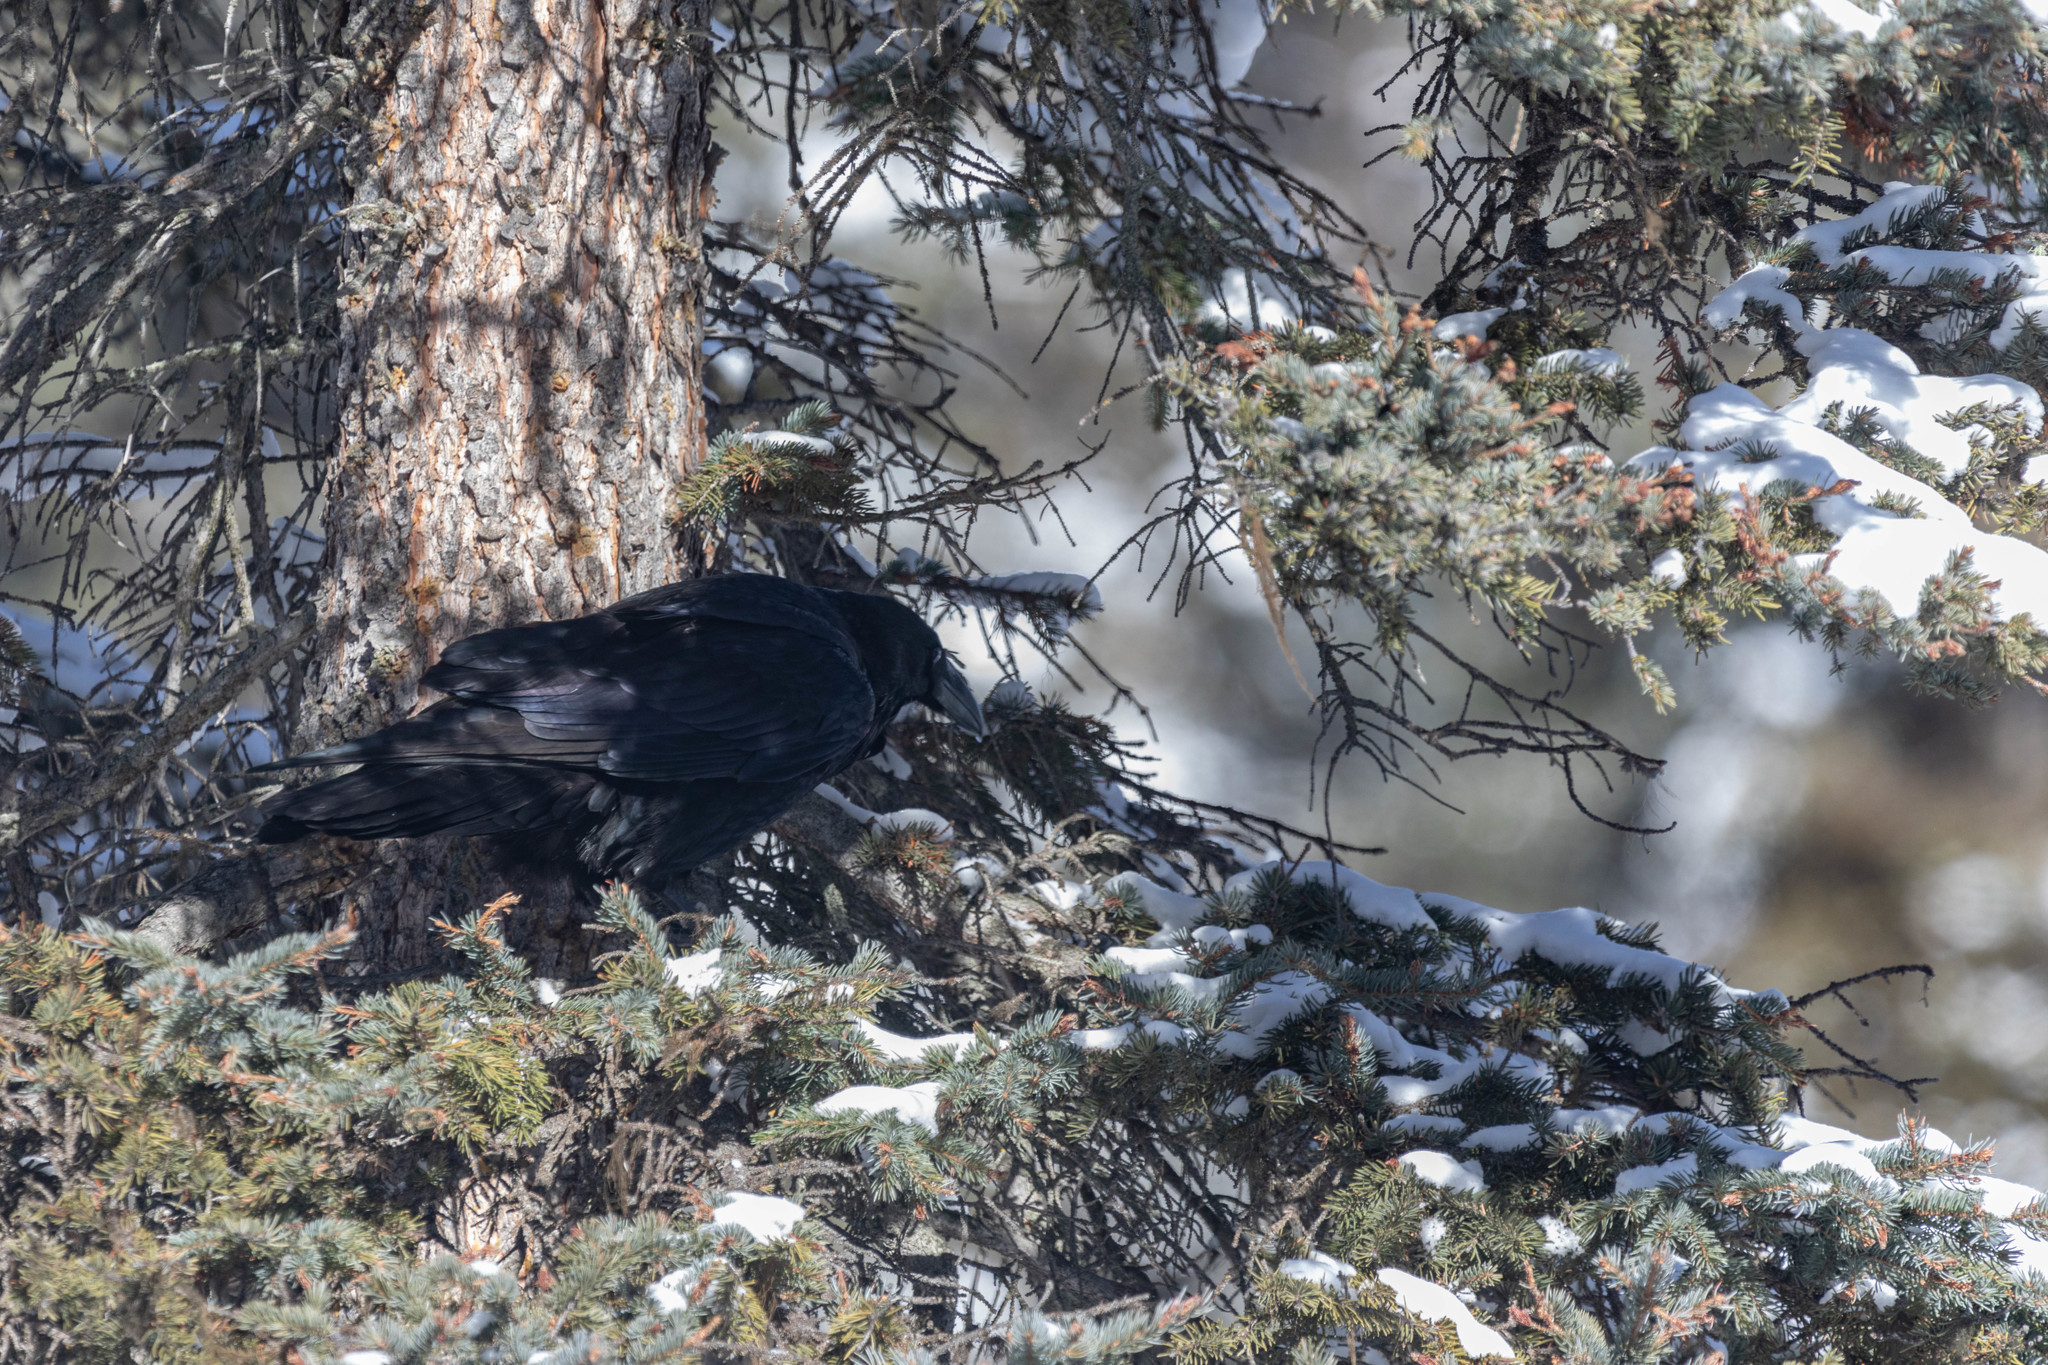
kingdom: Animalia
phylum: Chordata
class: Aves
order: Passeriformes
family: Corvidae
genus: Corvus
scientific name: Corvus corax
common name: Common raven
